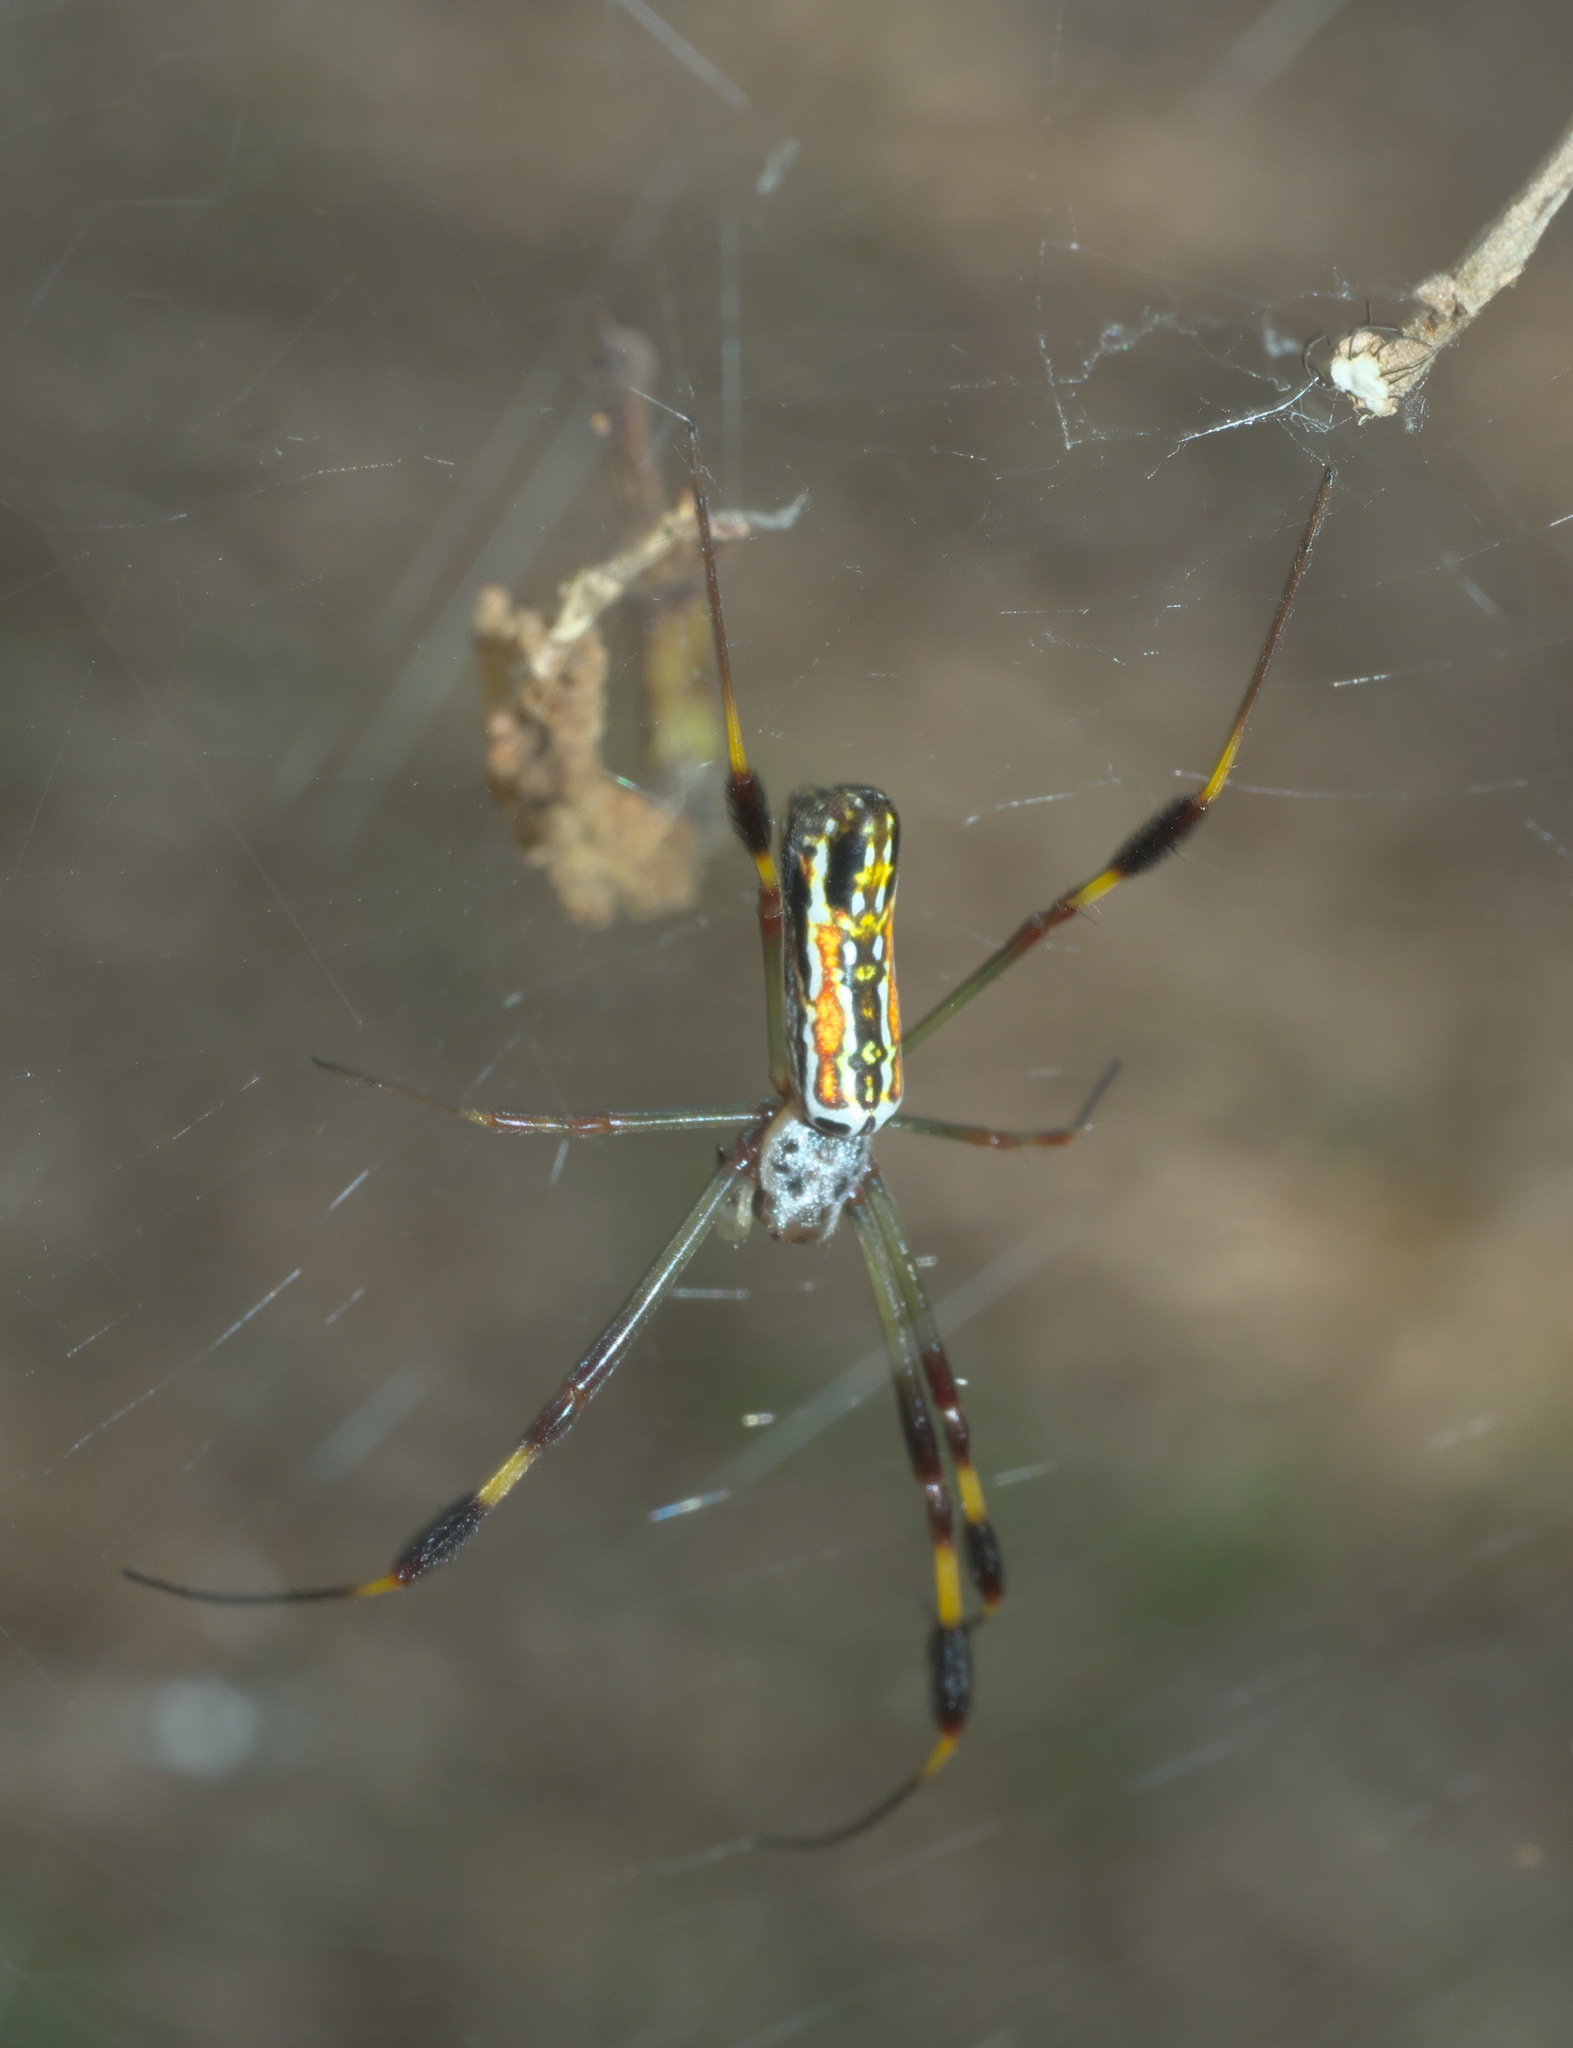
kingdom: Animalia
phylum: Arthropoda
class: Arachnida
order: Araneae
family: Araneidae
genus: Trichonephila
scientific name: Trichonephila clavipes
